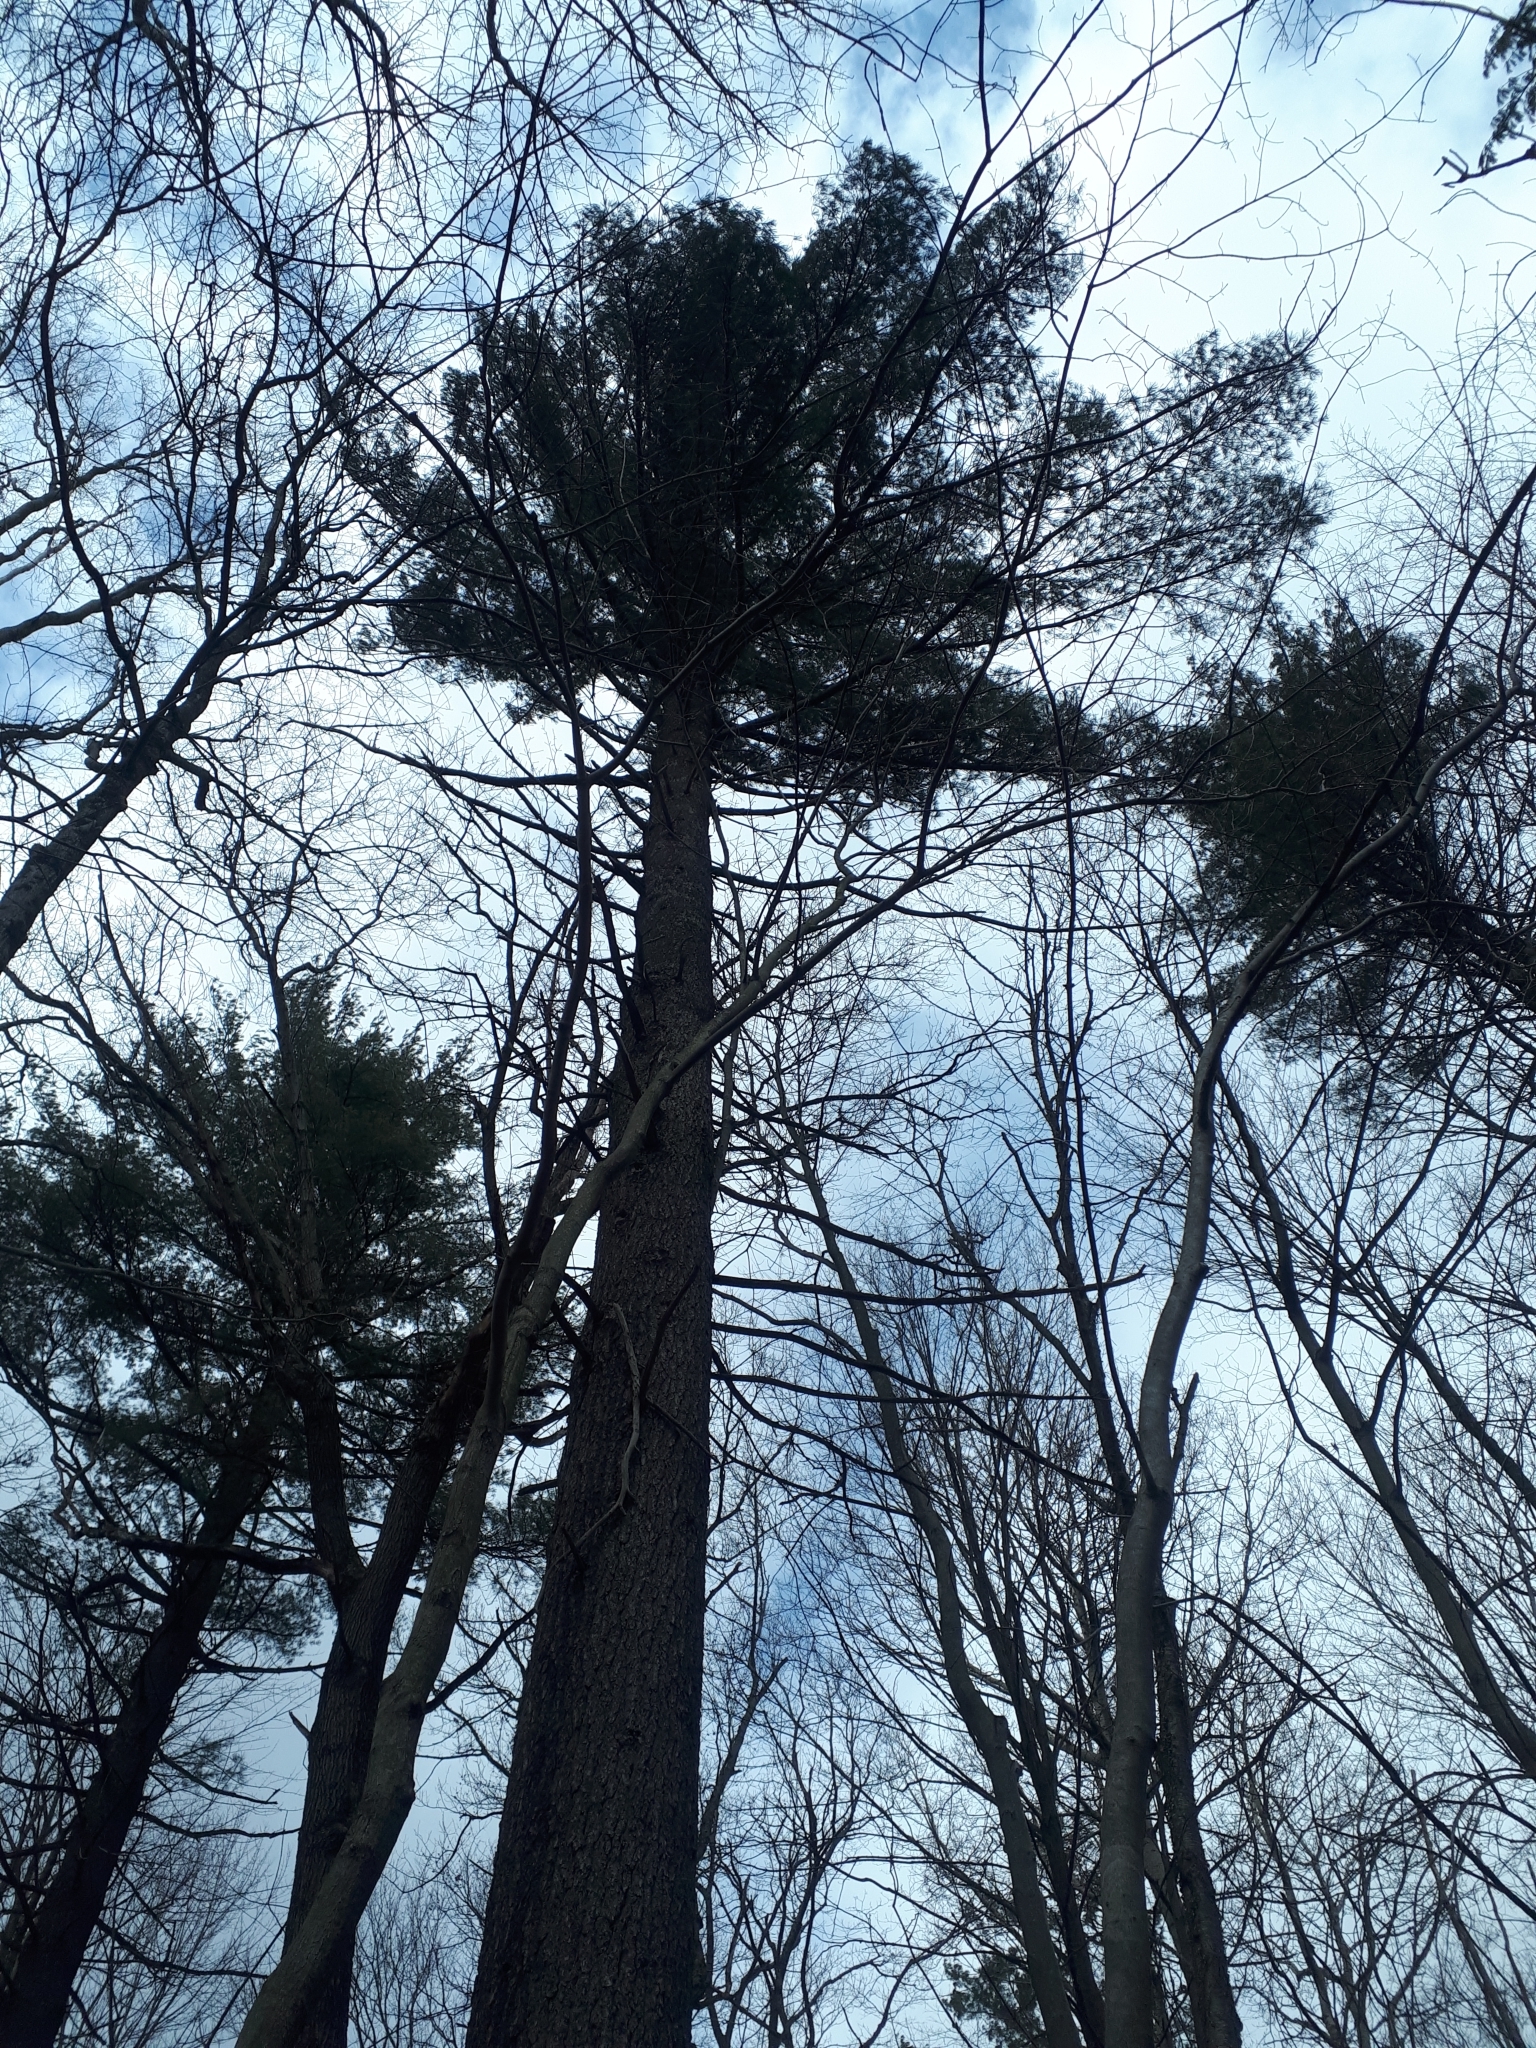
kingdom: Plantae
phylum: Tracheophyta
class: Pinopsida
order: Pinales
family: Pinaceae
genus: Pinus
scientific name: Pinus strobus
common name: Weymouth pine
